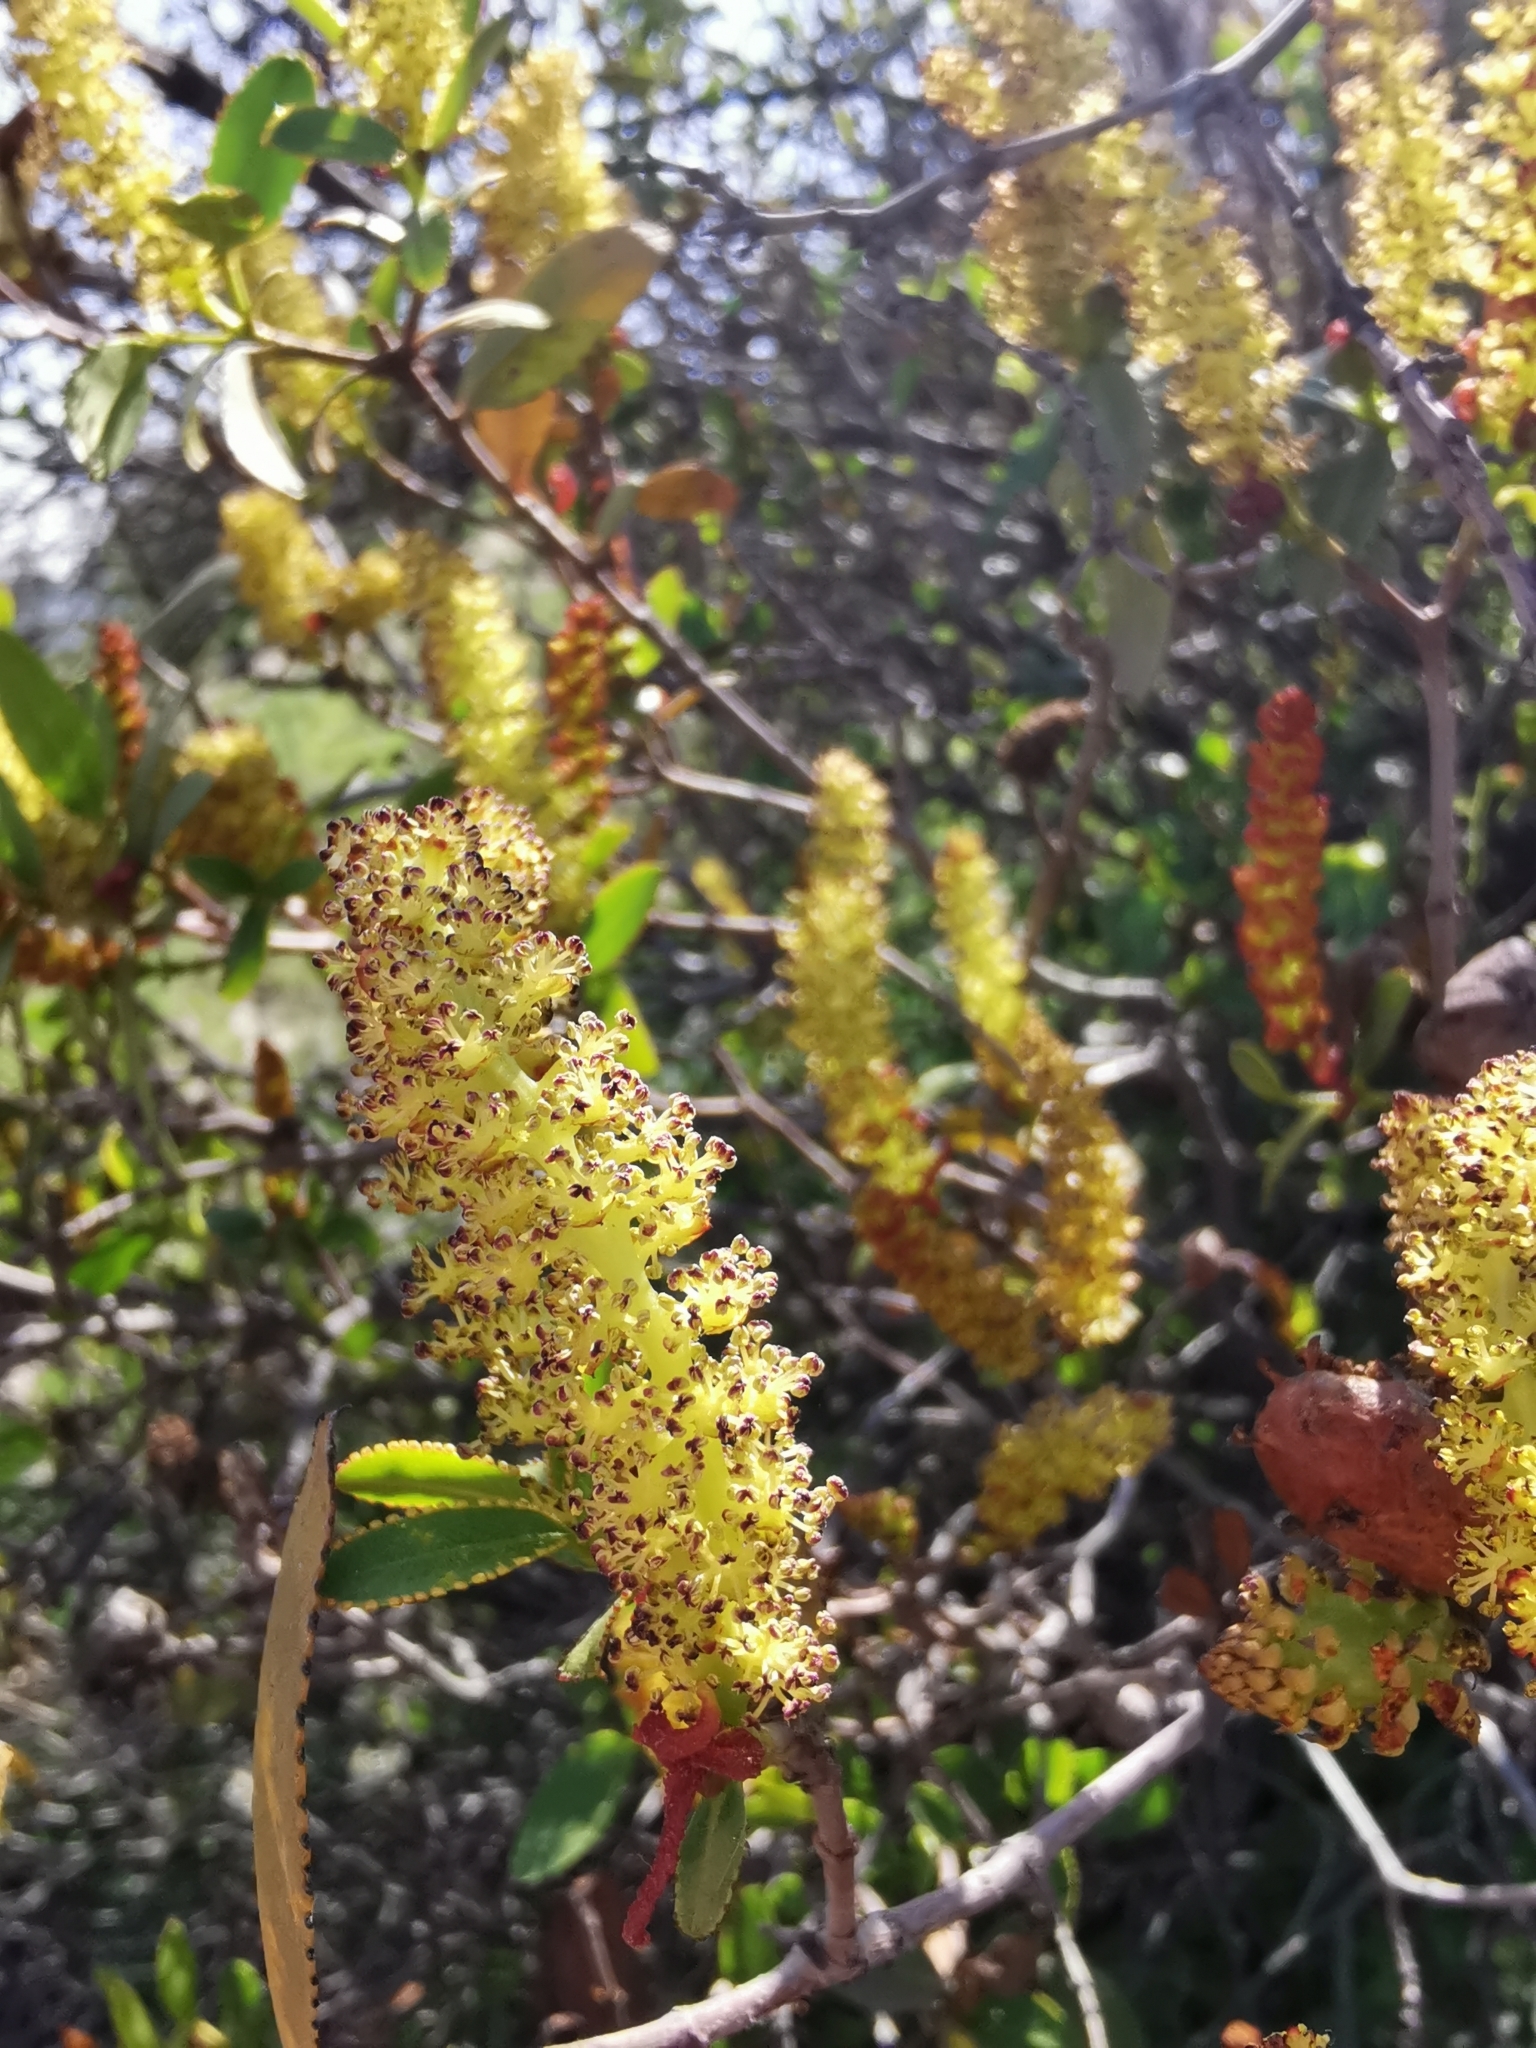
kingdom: Plantae
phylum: Tracheophyta
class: Magnoliopsida
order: Malpighiales
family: Euphorbiaceae
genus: Colliguaja
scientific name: Colliguaja odorifera
